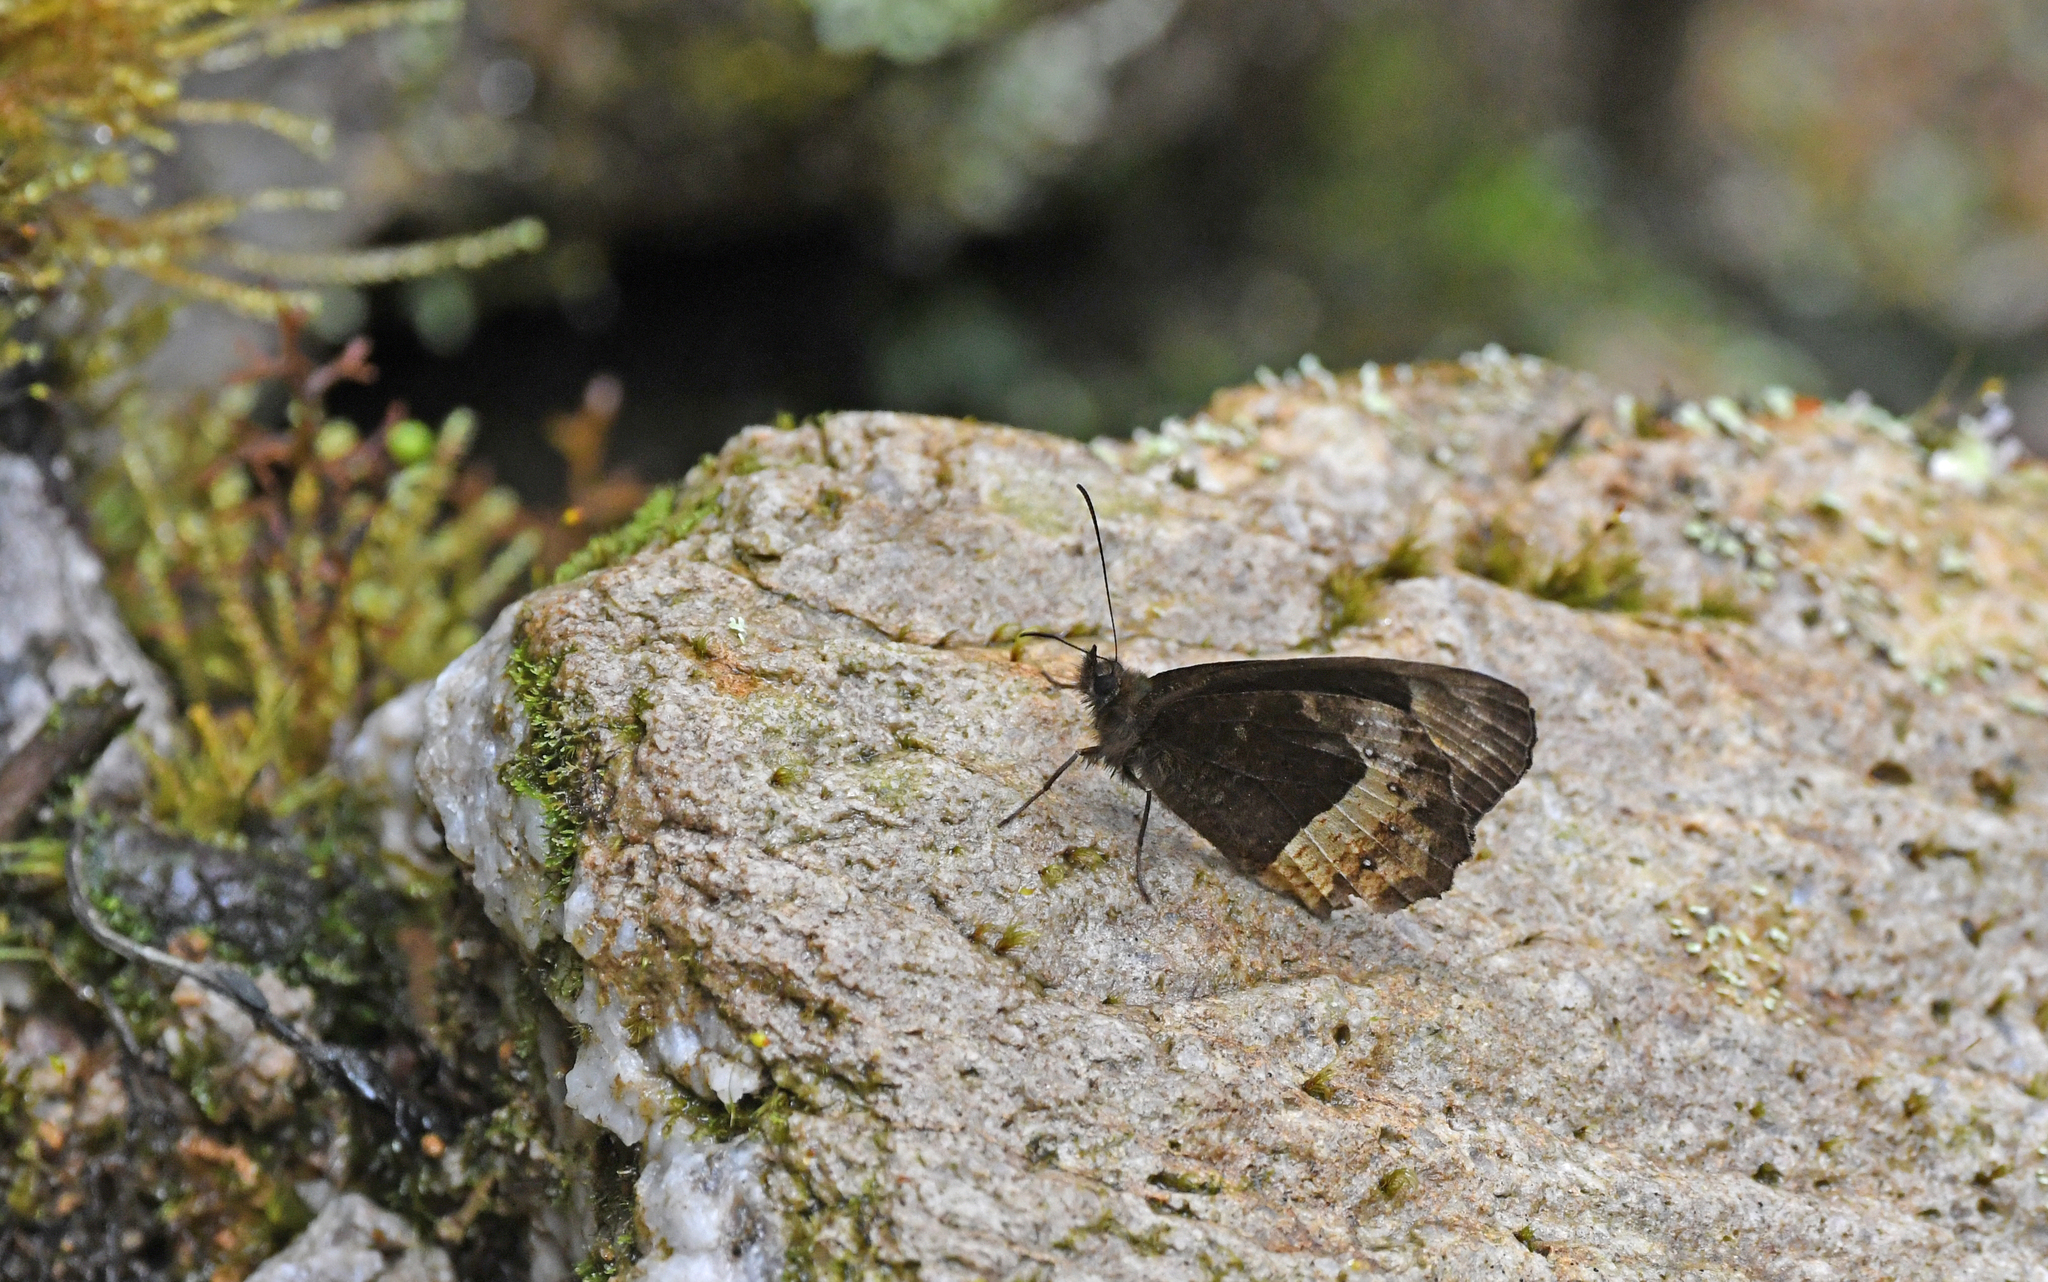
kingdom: Animalia
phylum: Arthropoda
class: Insecta
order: Lepidoptera
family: Nymphalidae
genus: Pedaliodes
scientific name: Pedaliodes
